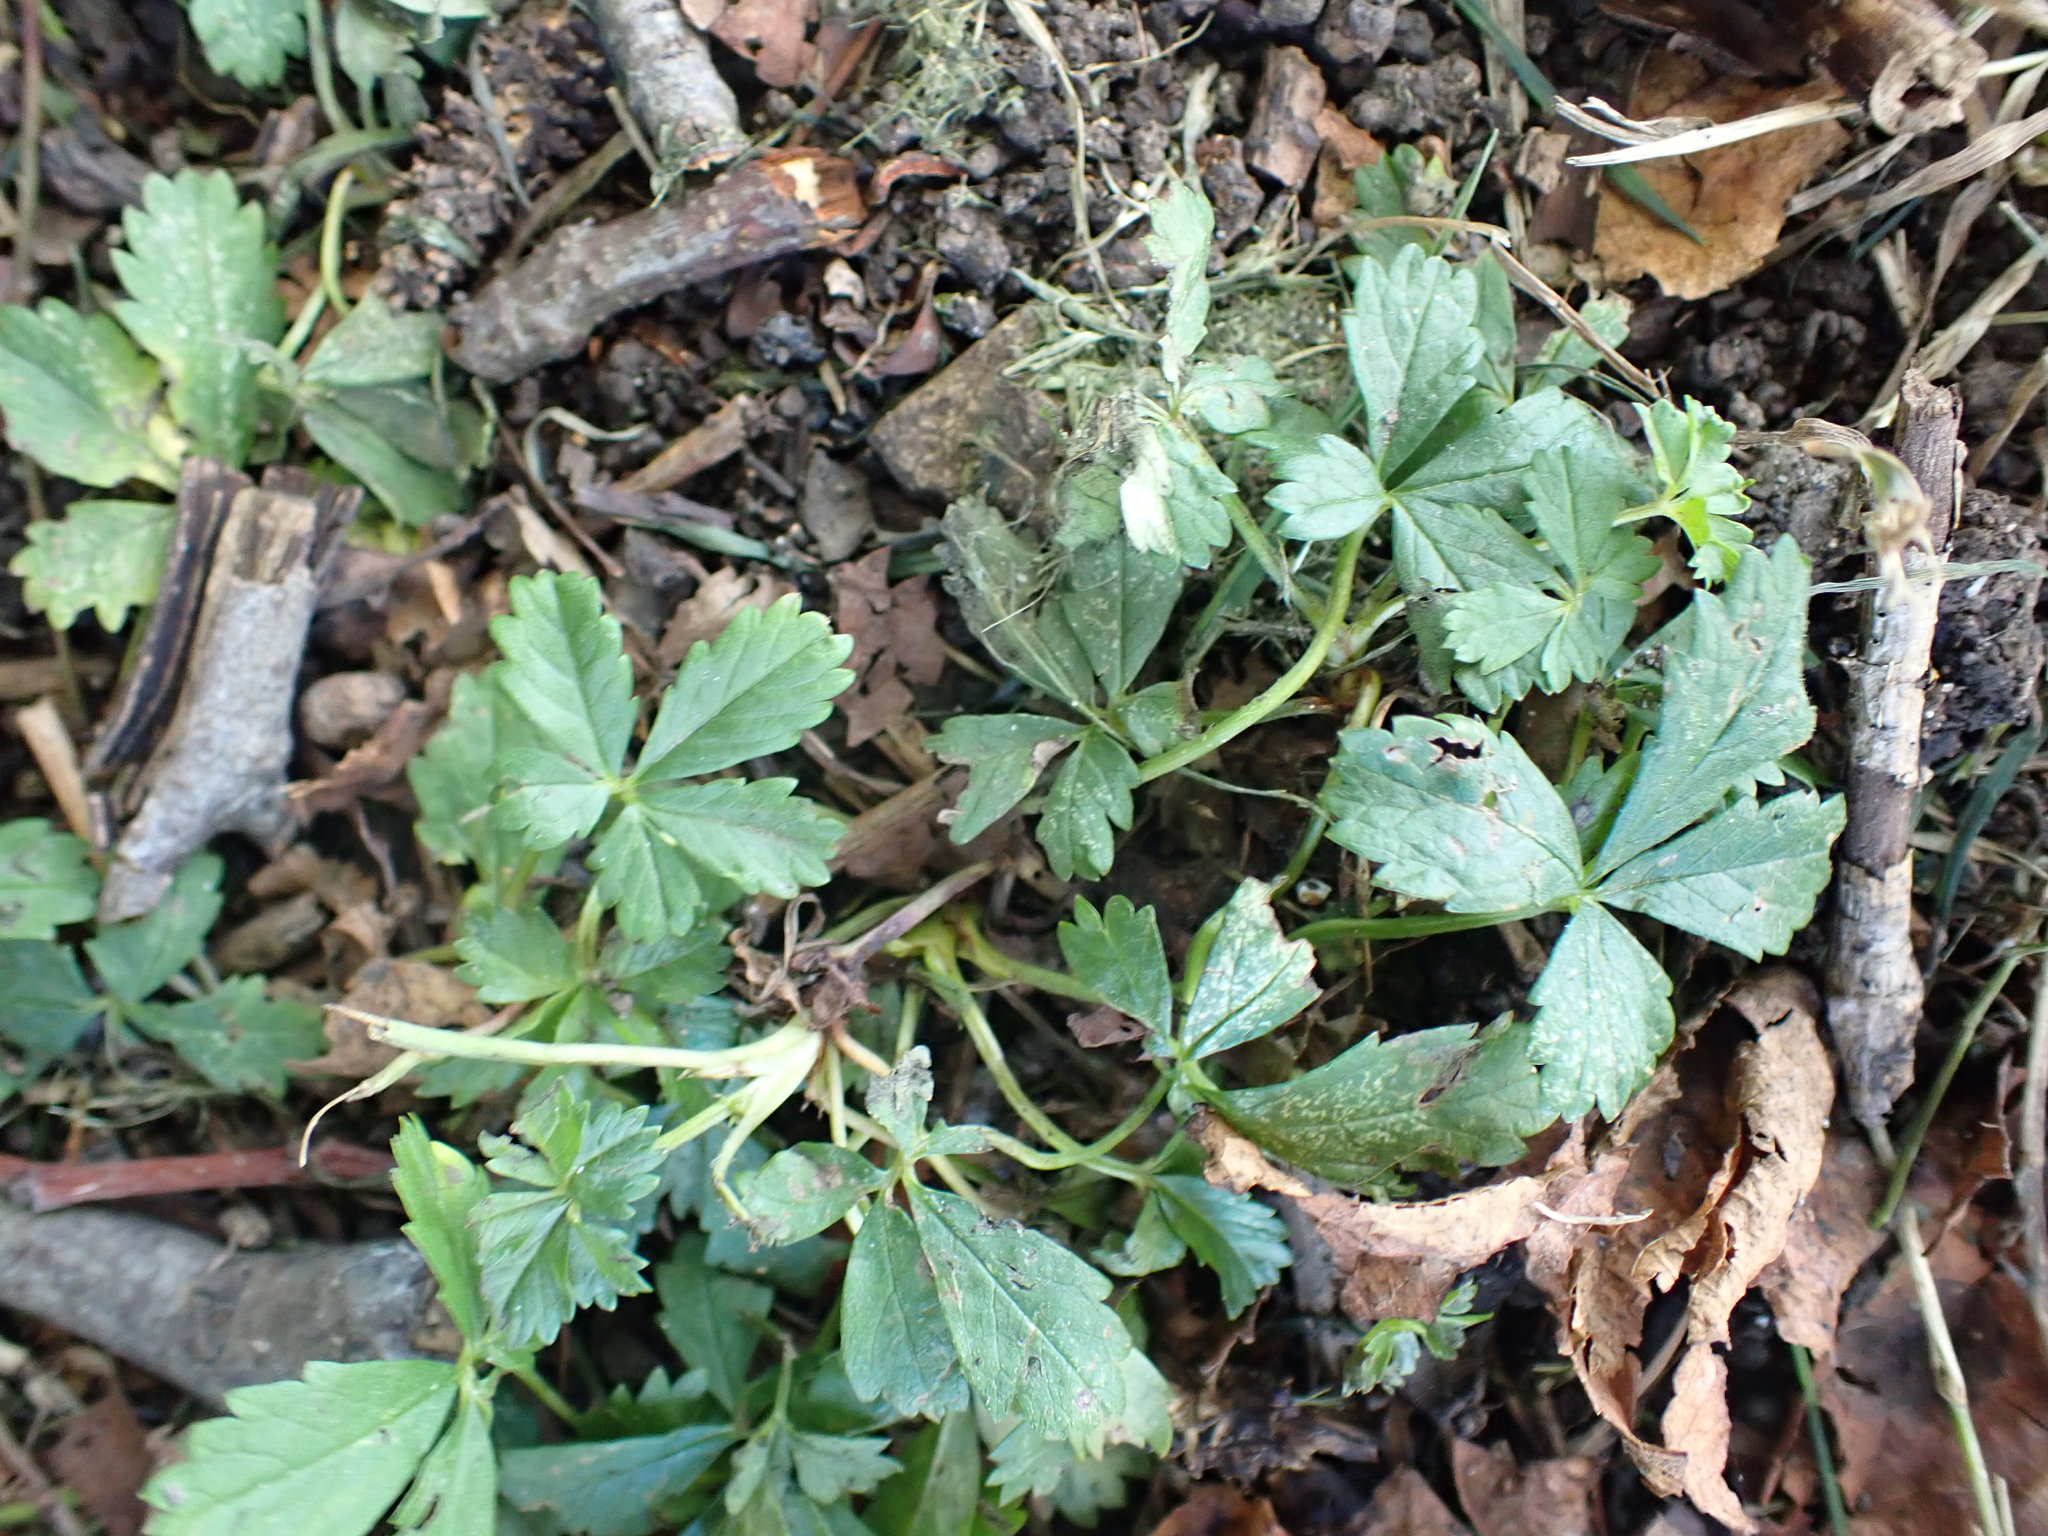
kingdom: Plantae
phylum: Tracheophyta
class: Magnoliopsida
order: Rosales
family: Rosaceae
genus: Potentilla
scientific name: Potentilla reptans
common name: Creeping cinquefoil
